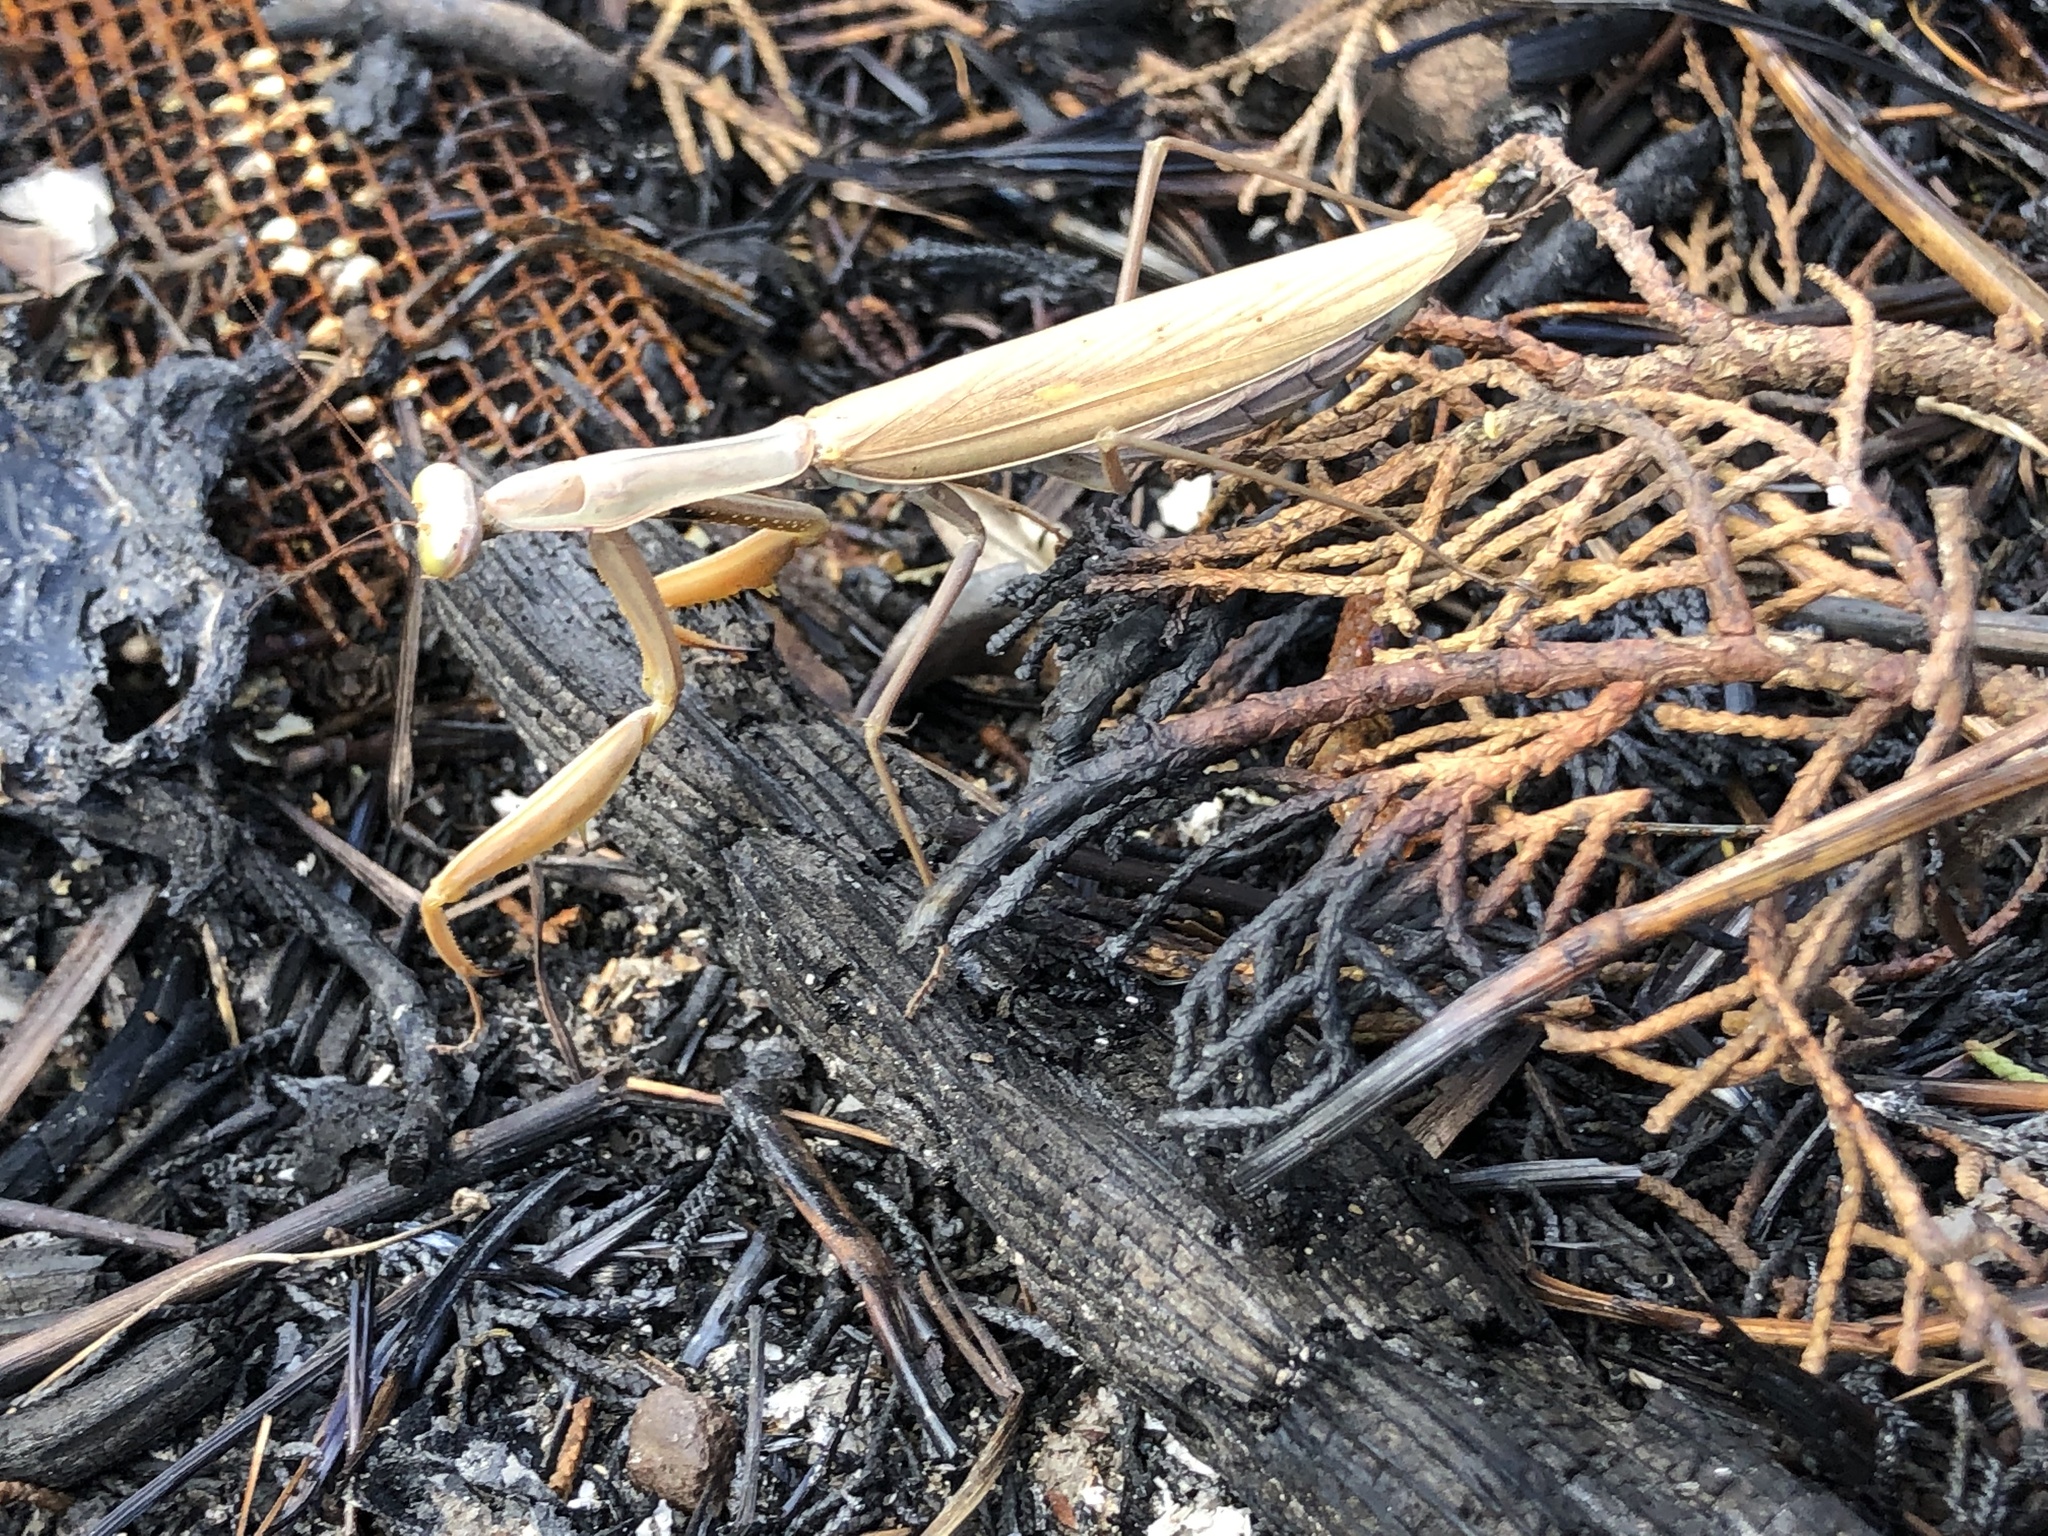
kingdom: Animalia
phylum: Arthropoda
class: Insecta
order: Mantodea
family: Mantidae
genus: Mantis
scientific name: Mantis religiosa
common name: Praying mantis
